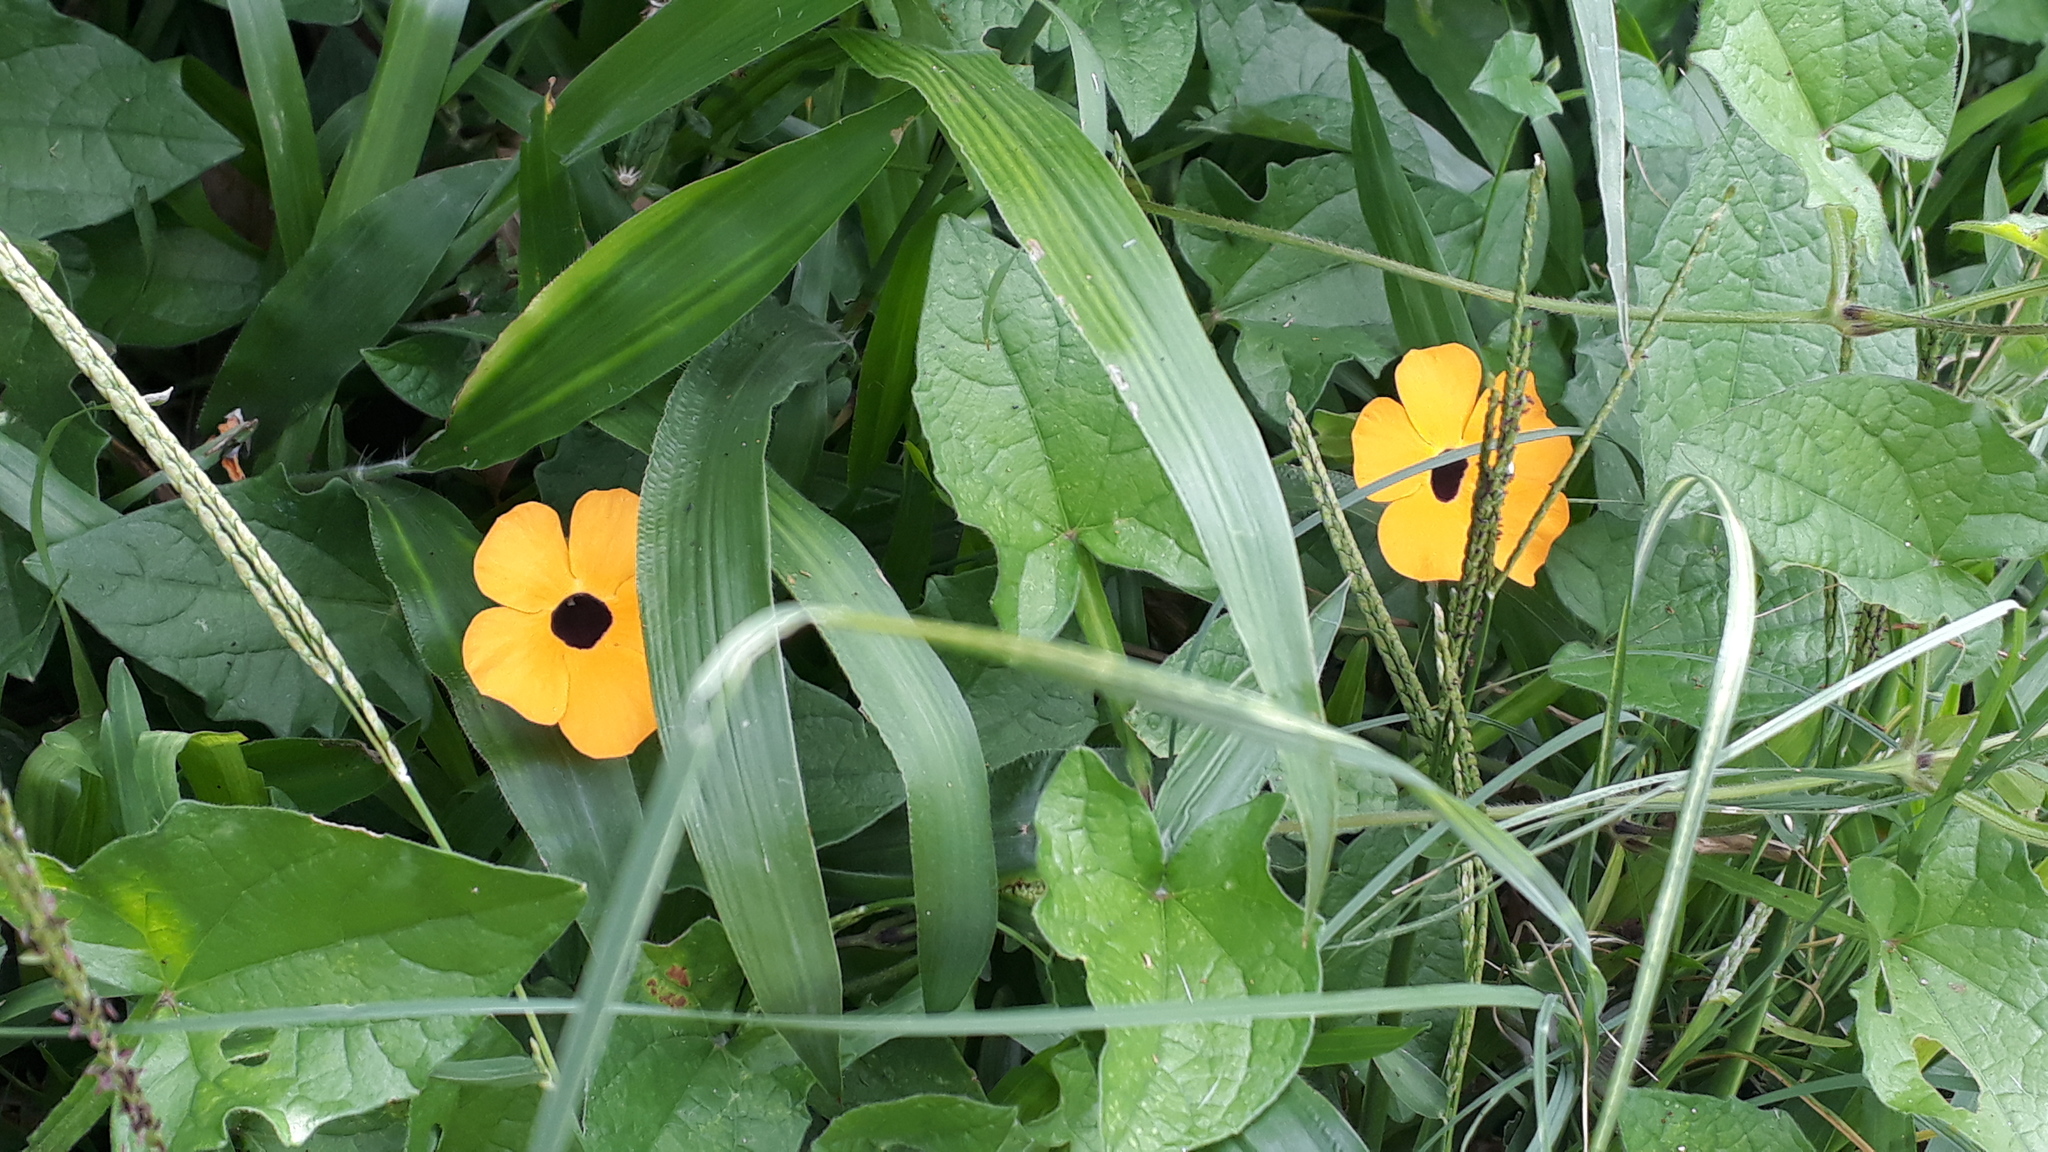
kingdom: Plantae
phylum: Tracheophyta
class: Magnoliopsida
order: Lamiales
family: Acanthaceae
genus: Thunbergia
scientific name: Thunbergia alata
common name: Blackeyed susan vine
